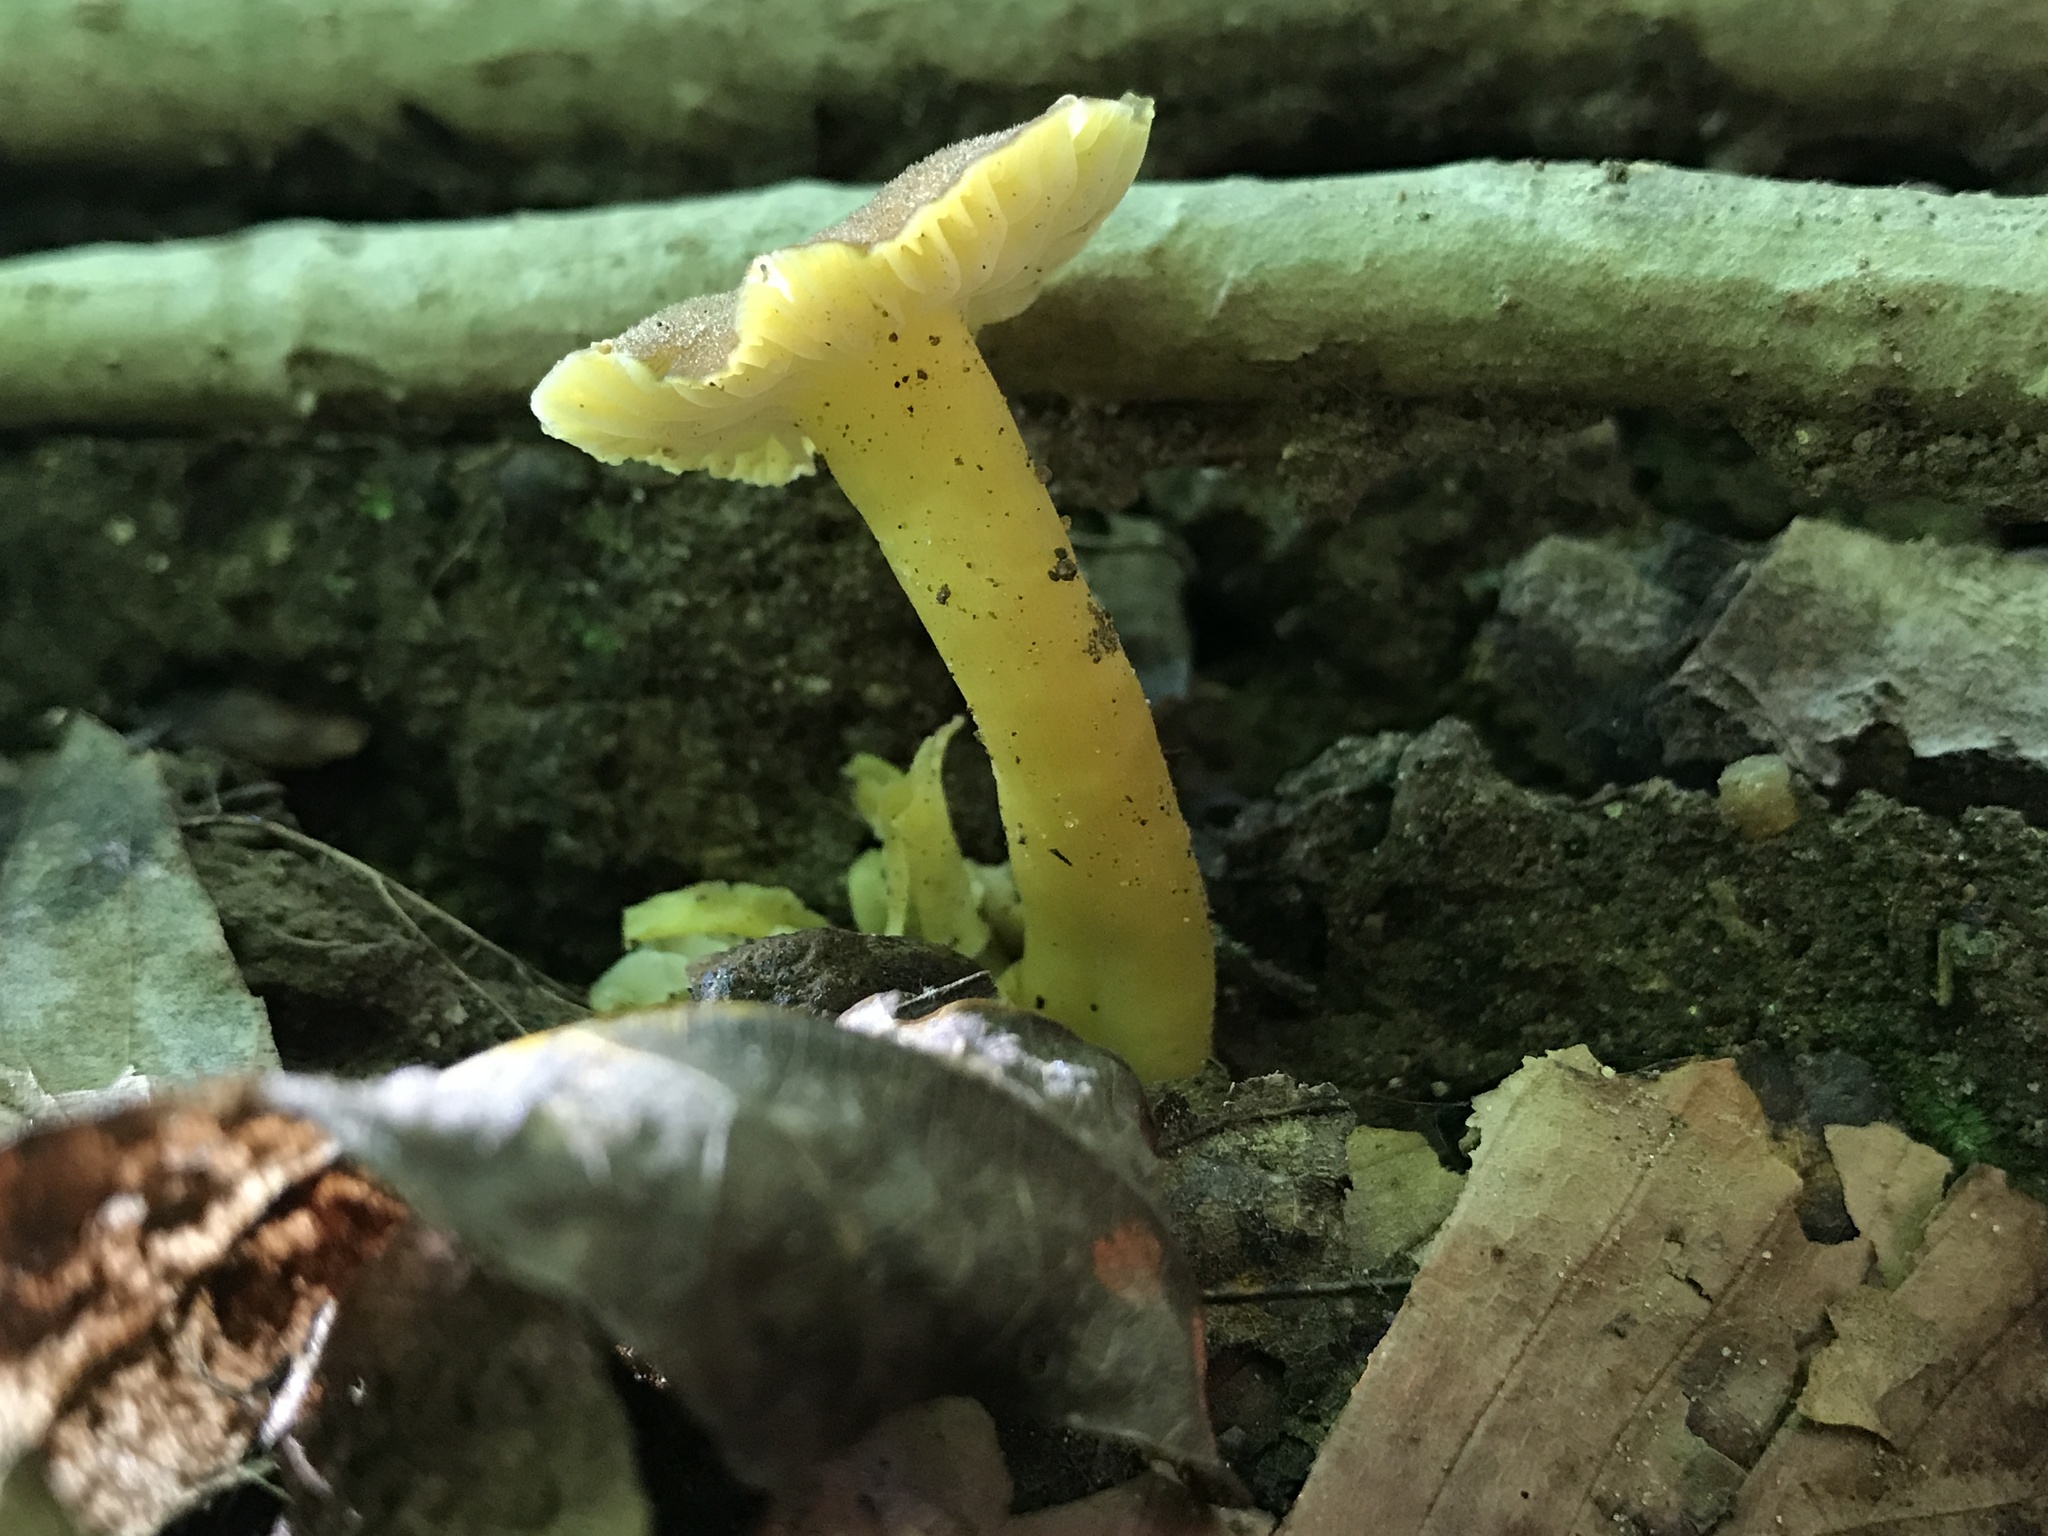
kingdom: Fungi
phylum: Basidiomycota
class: Agaricomycetes
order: Agaricales
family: Hygrophoraceae
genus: Hygrocybe
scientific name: Hygrocybe caespitosa
